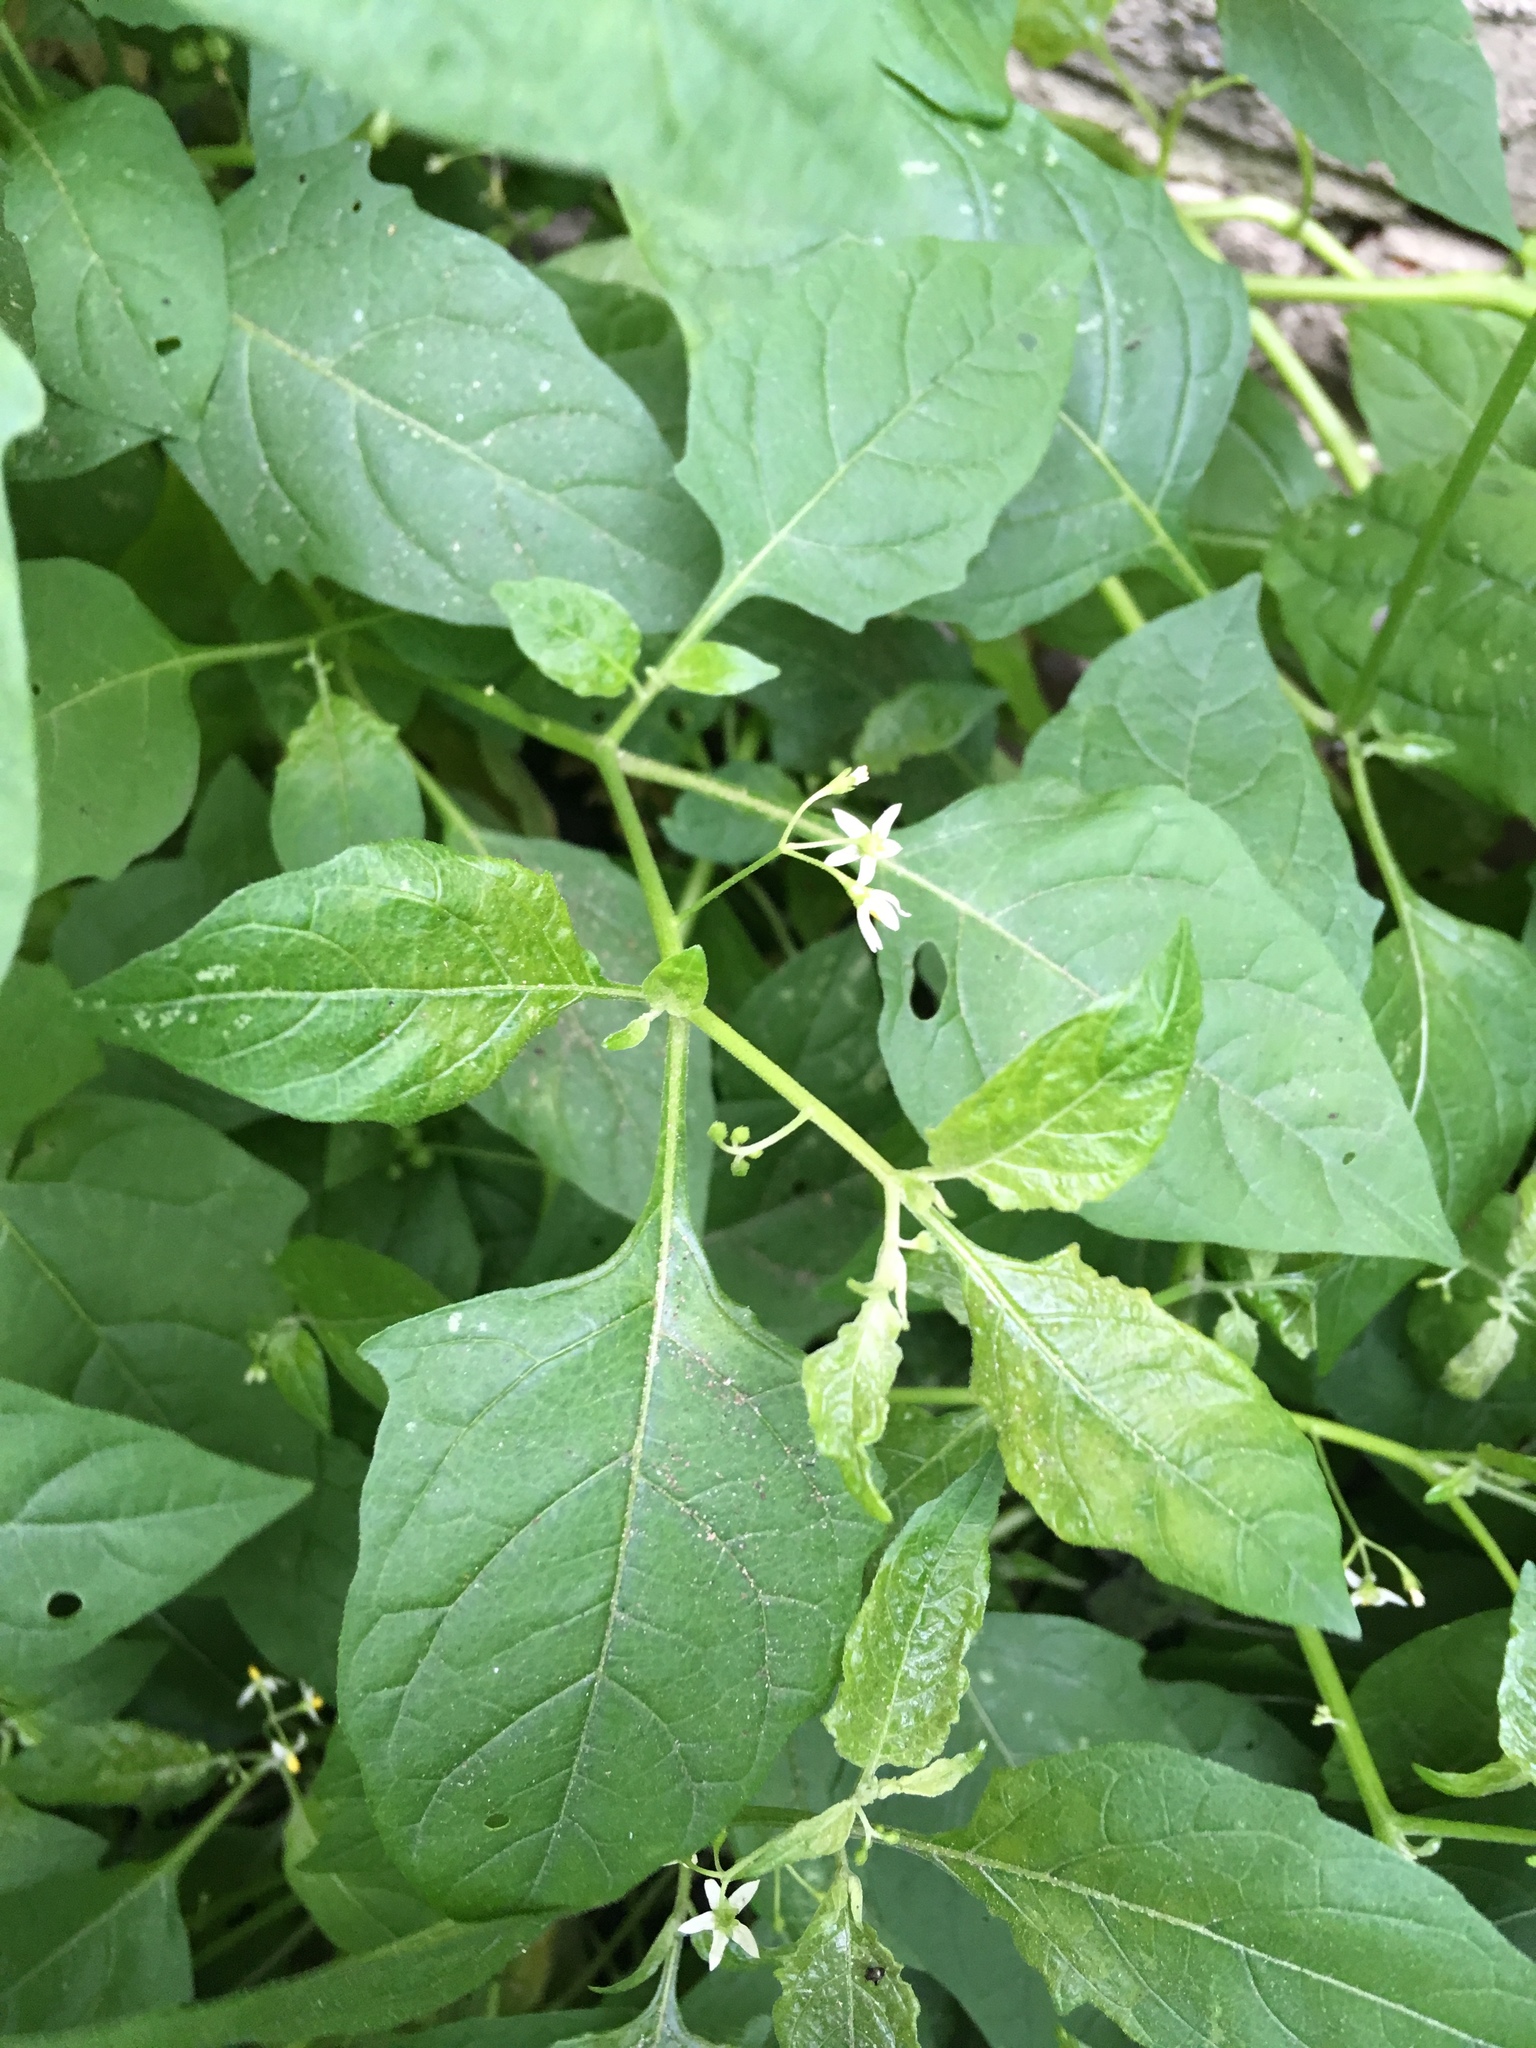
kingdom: Plantae
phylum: Tracheophyta
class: Magnoliopsida
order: Solanales
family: Solanaceae
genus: Solanum
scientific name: Solanum emulans
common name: Eastern black nightshade
